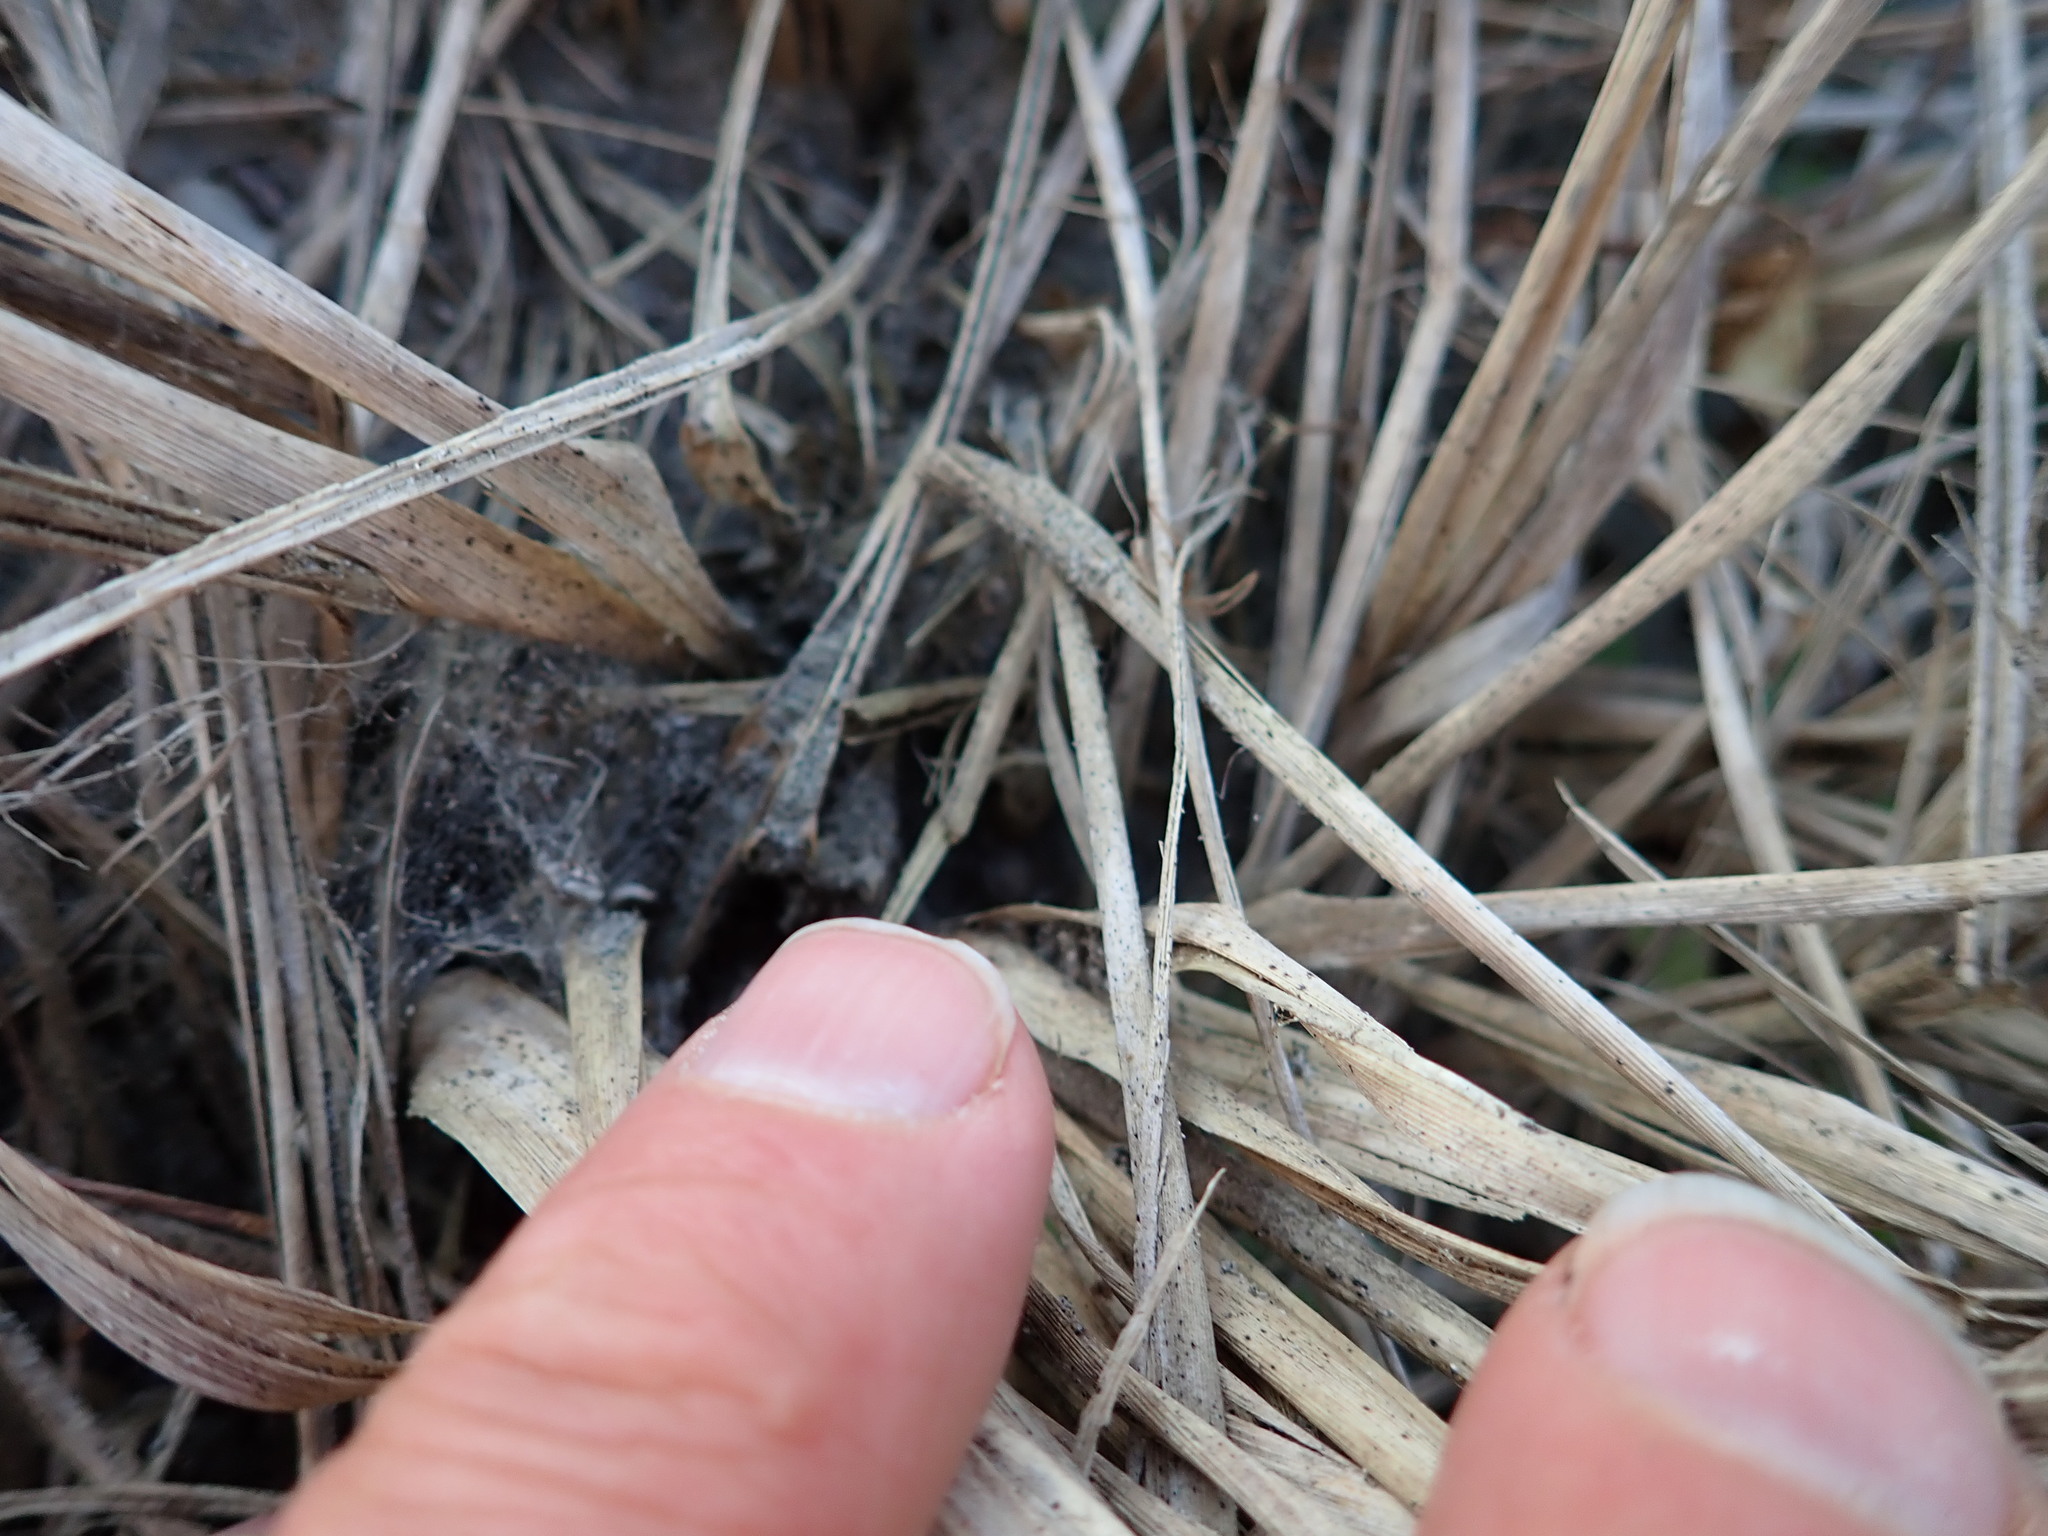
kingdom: Animalia
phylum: Arthropoda
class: Arachnida
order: Araneae
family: Theridiidae
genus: Latrodectus
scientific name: Latrodectus katipo
